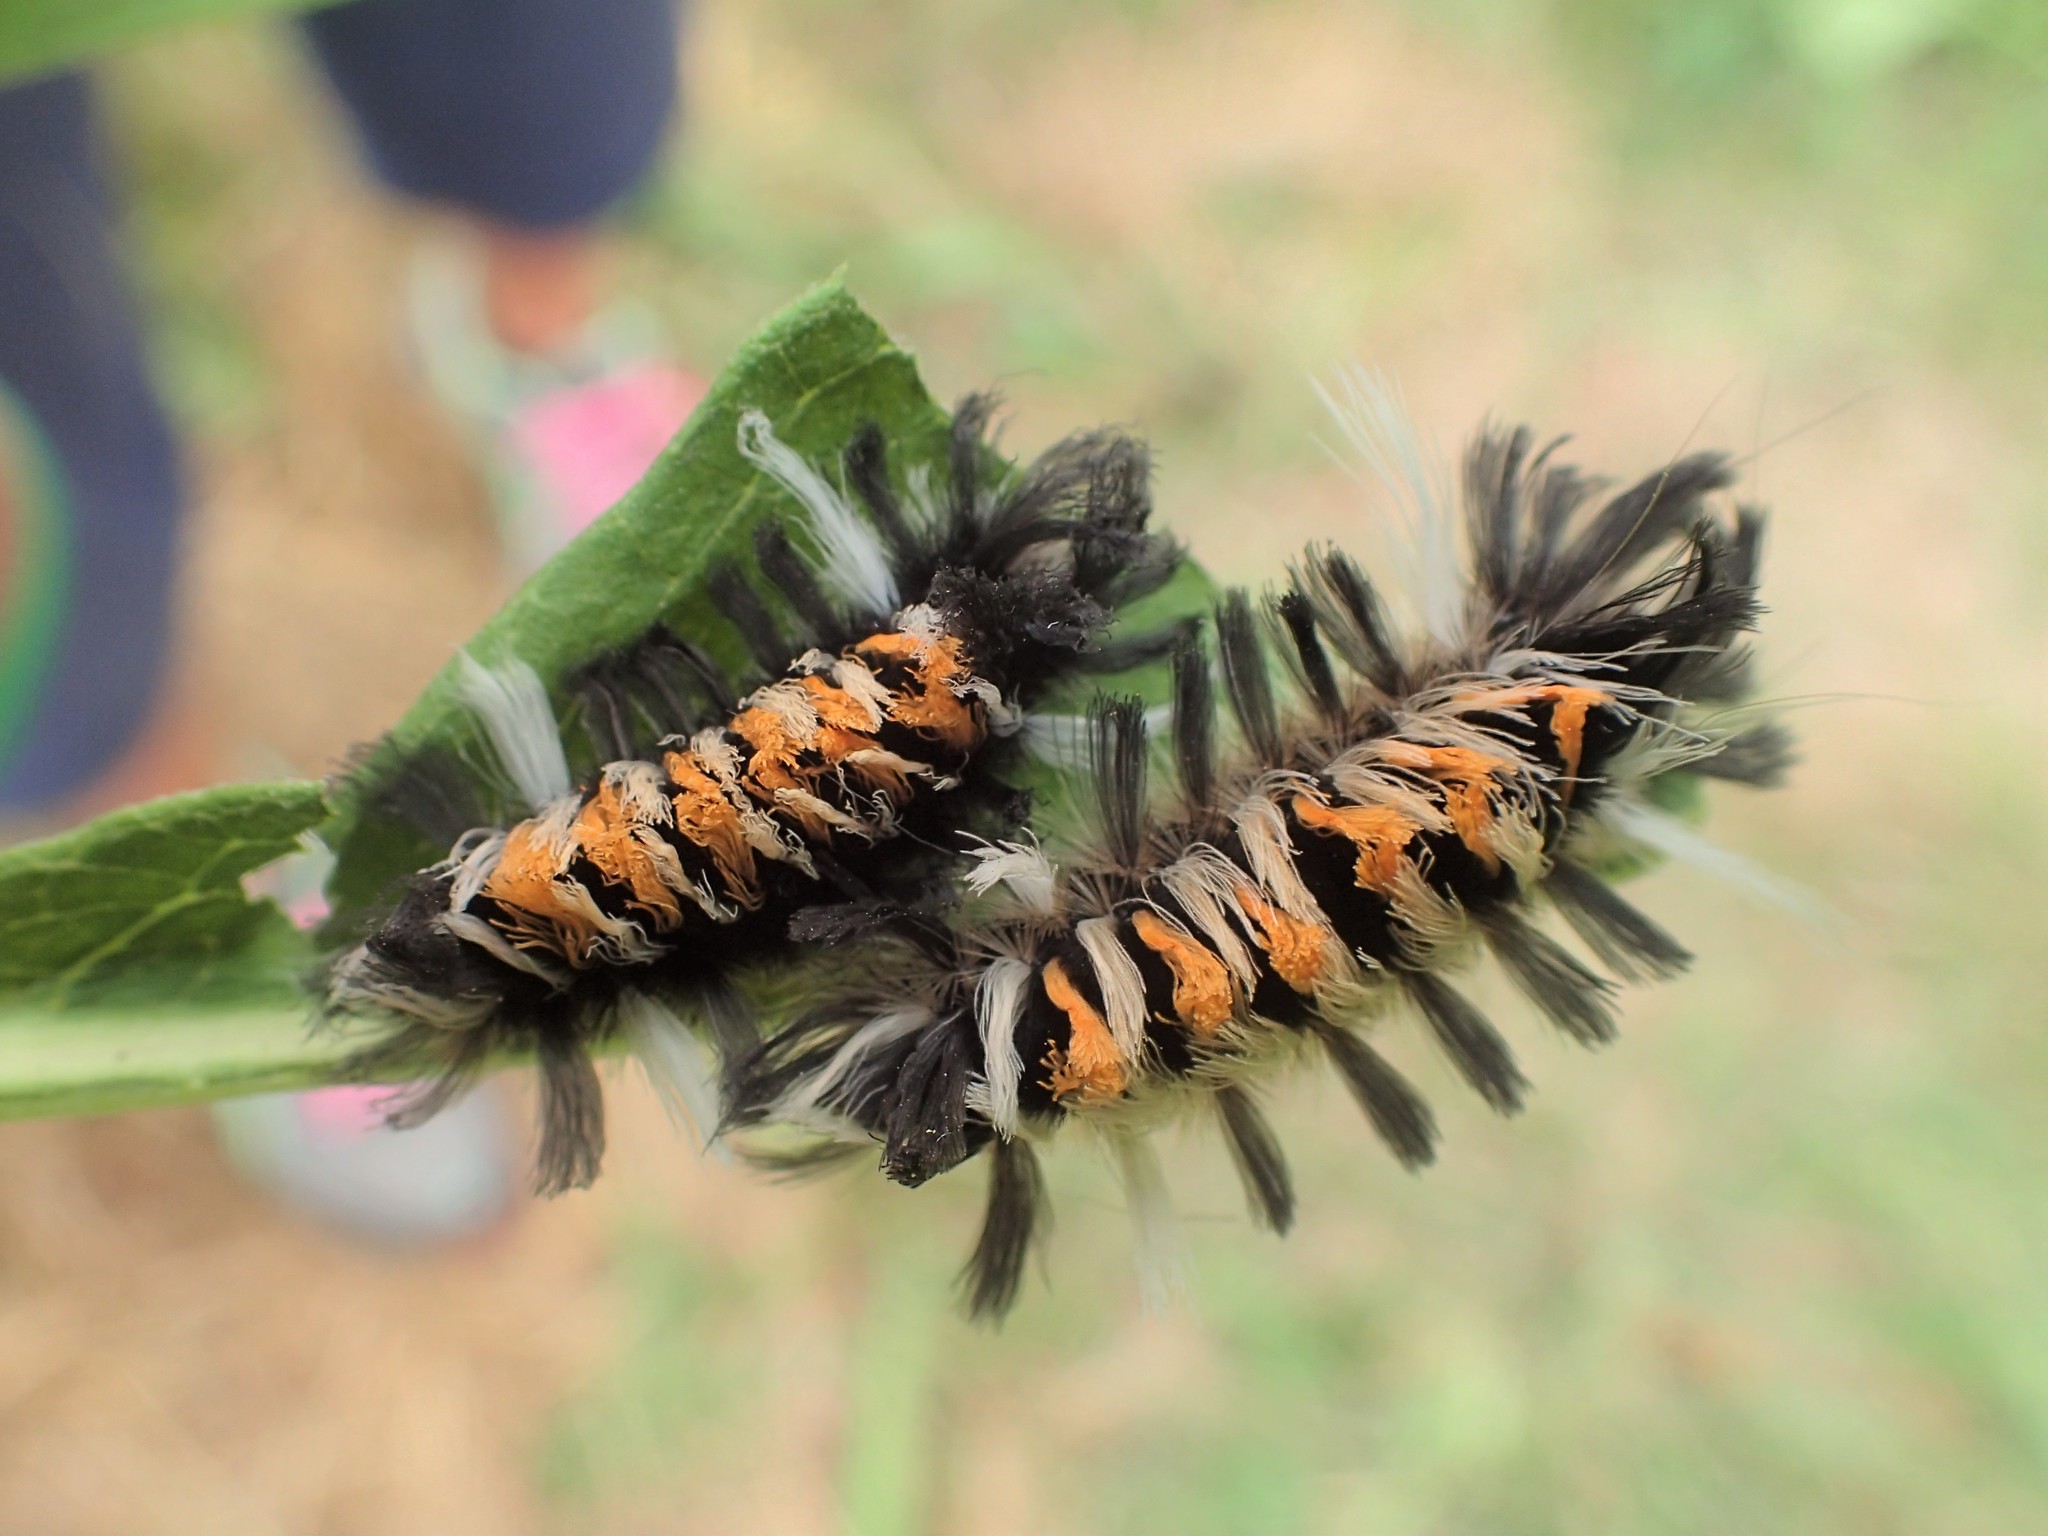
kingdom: Animalia
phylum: Arthropoda
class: Insecta
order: Lepidoptera
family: Erebidae
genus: Euchaetes
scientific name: Euchaetes egle
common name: Milkweed tussock moth
